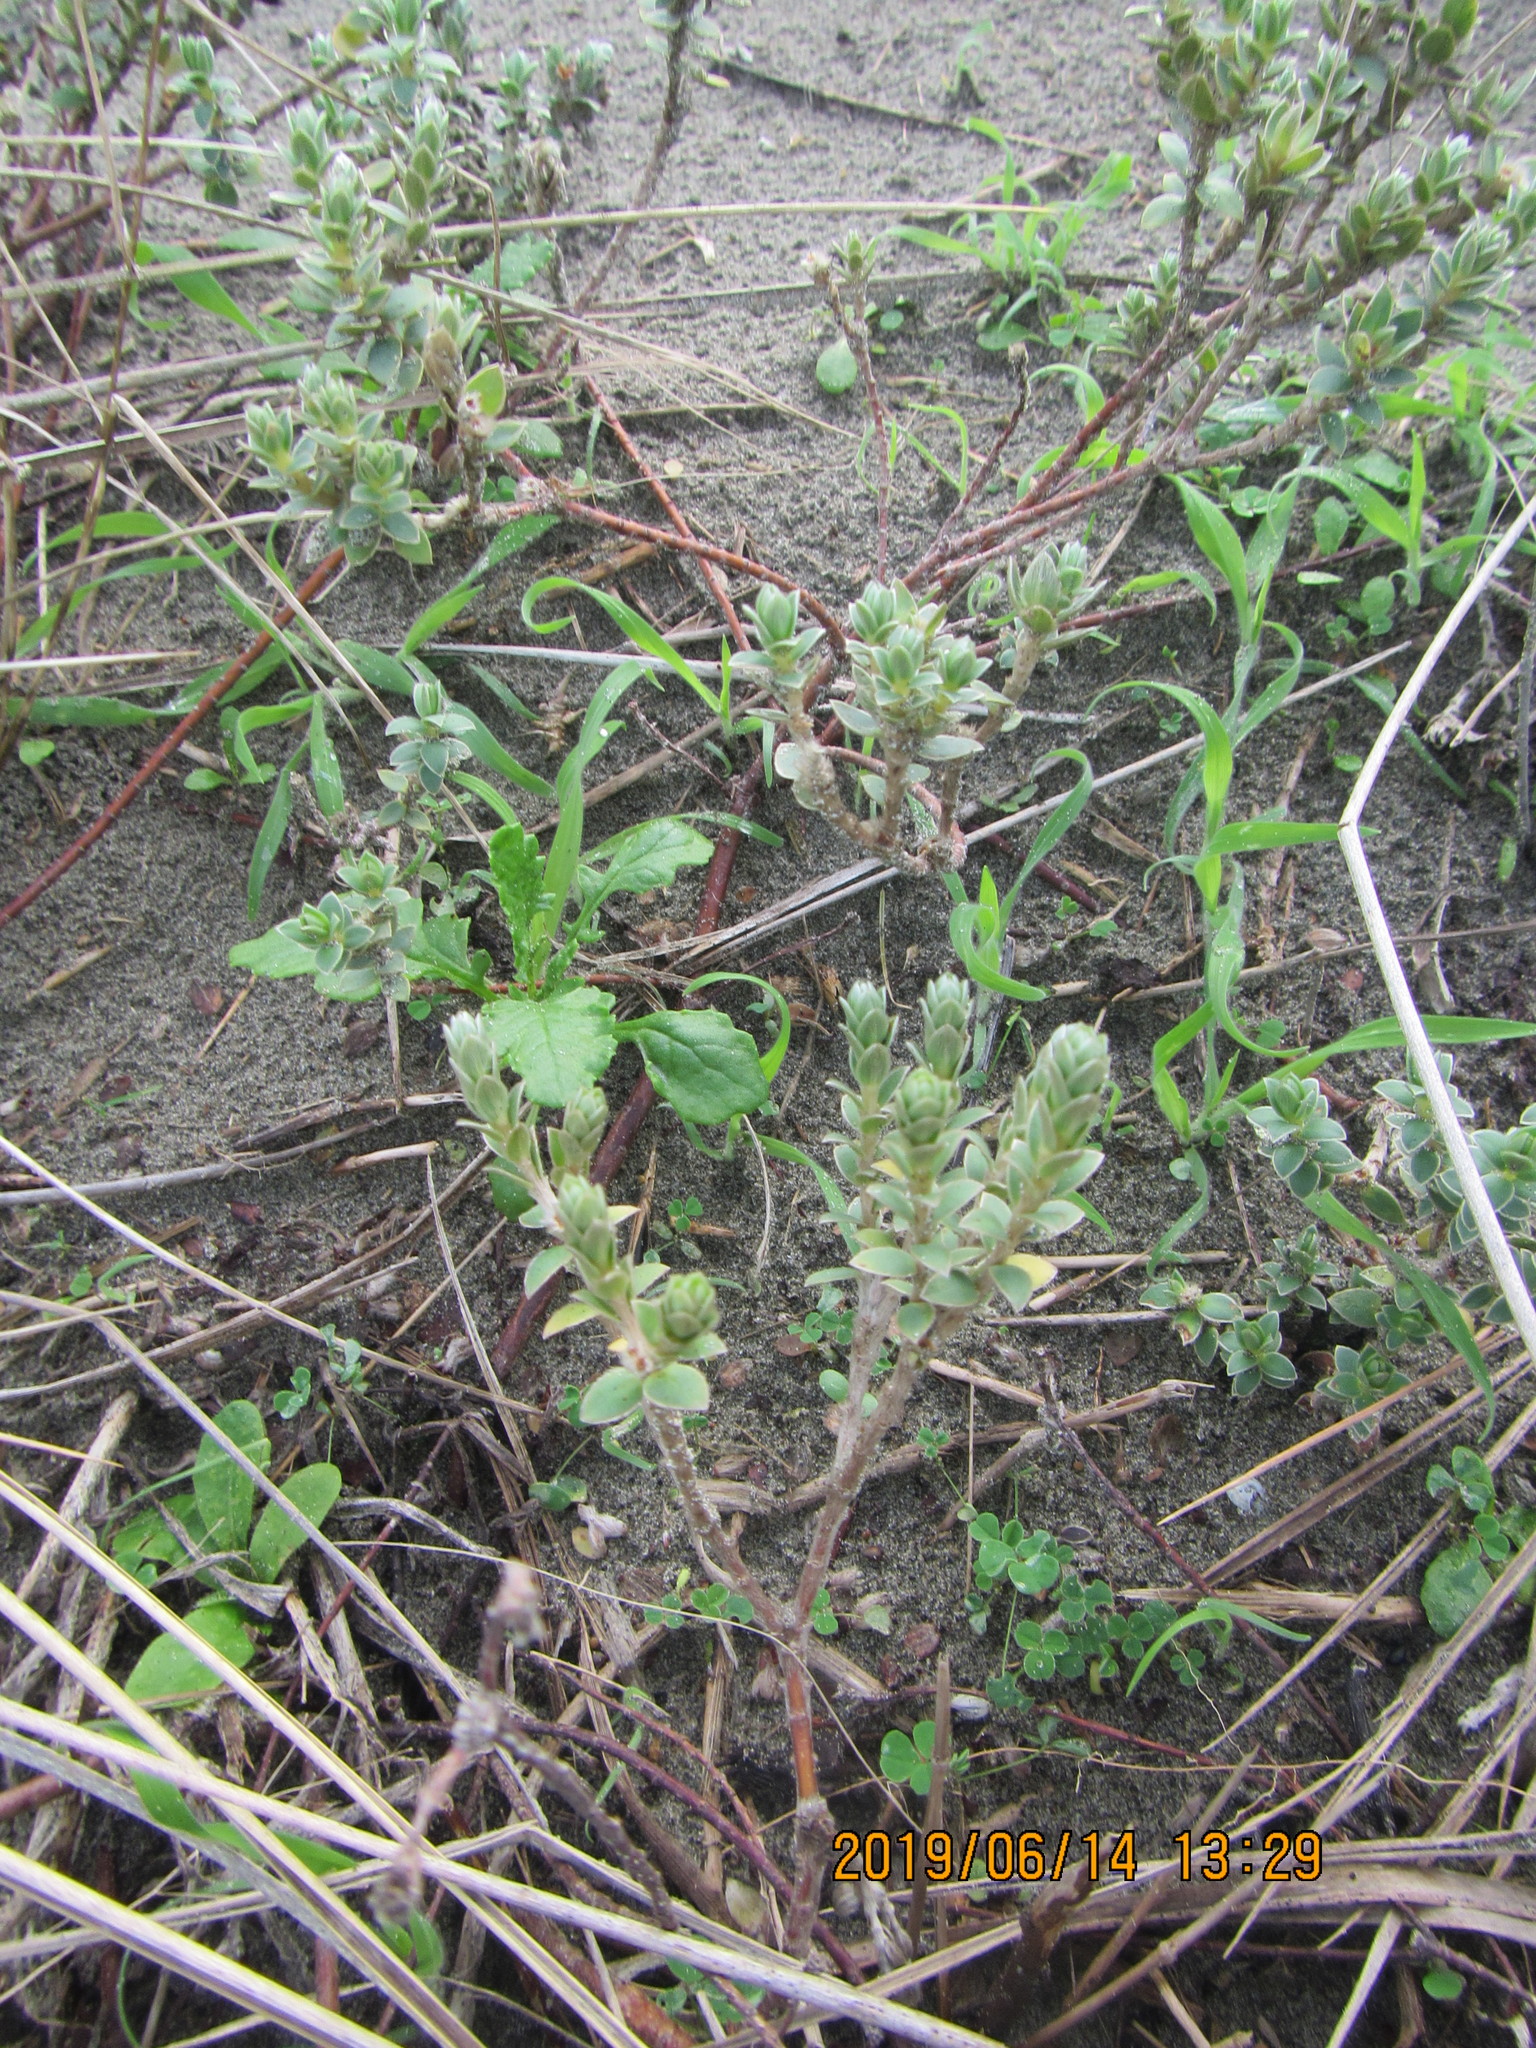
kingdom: Plantae
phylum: Tracheophyta
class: Magnoliopsida
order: Malvales
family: Thymelaeaceae
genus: Pimelea
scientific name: Pimelea villosa
